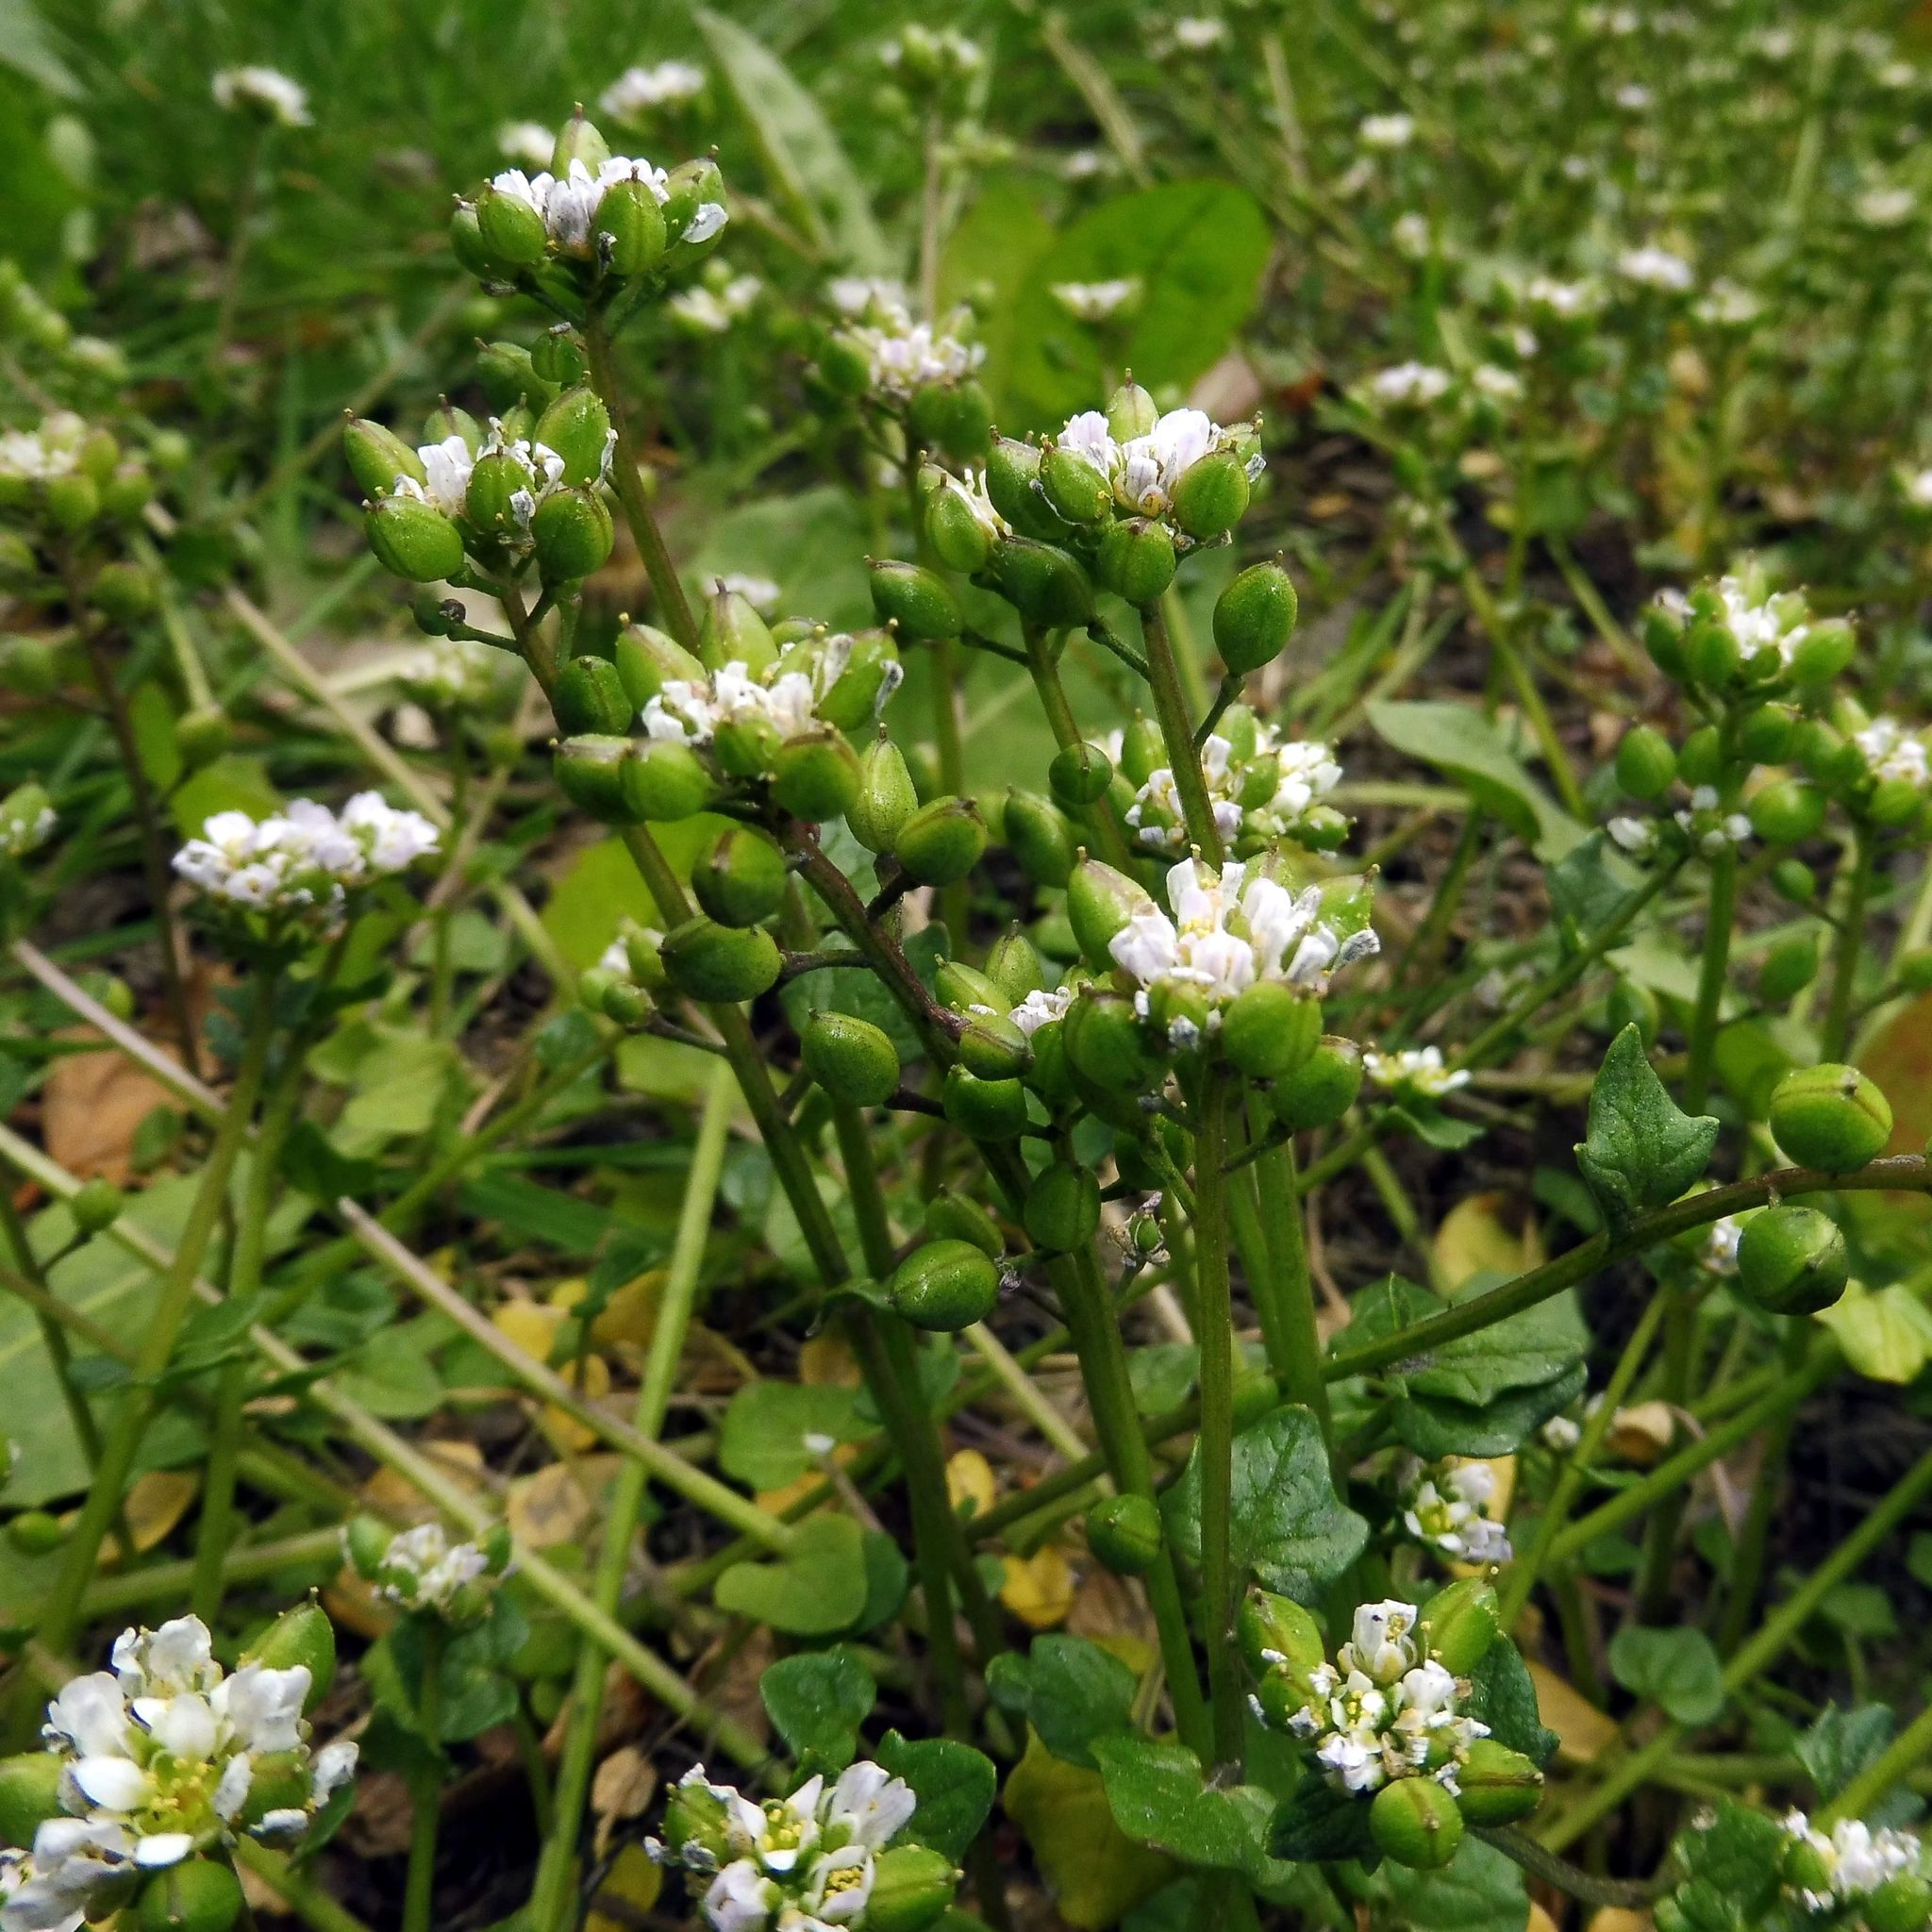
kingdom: Plantae
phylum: Tracheophyta
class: Magnoliopsida
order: Brassicales
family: Brassicaceae
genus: Cochlearia
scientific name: Cochlearia danica
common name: Early scurvygrass
